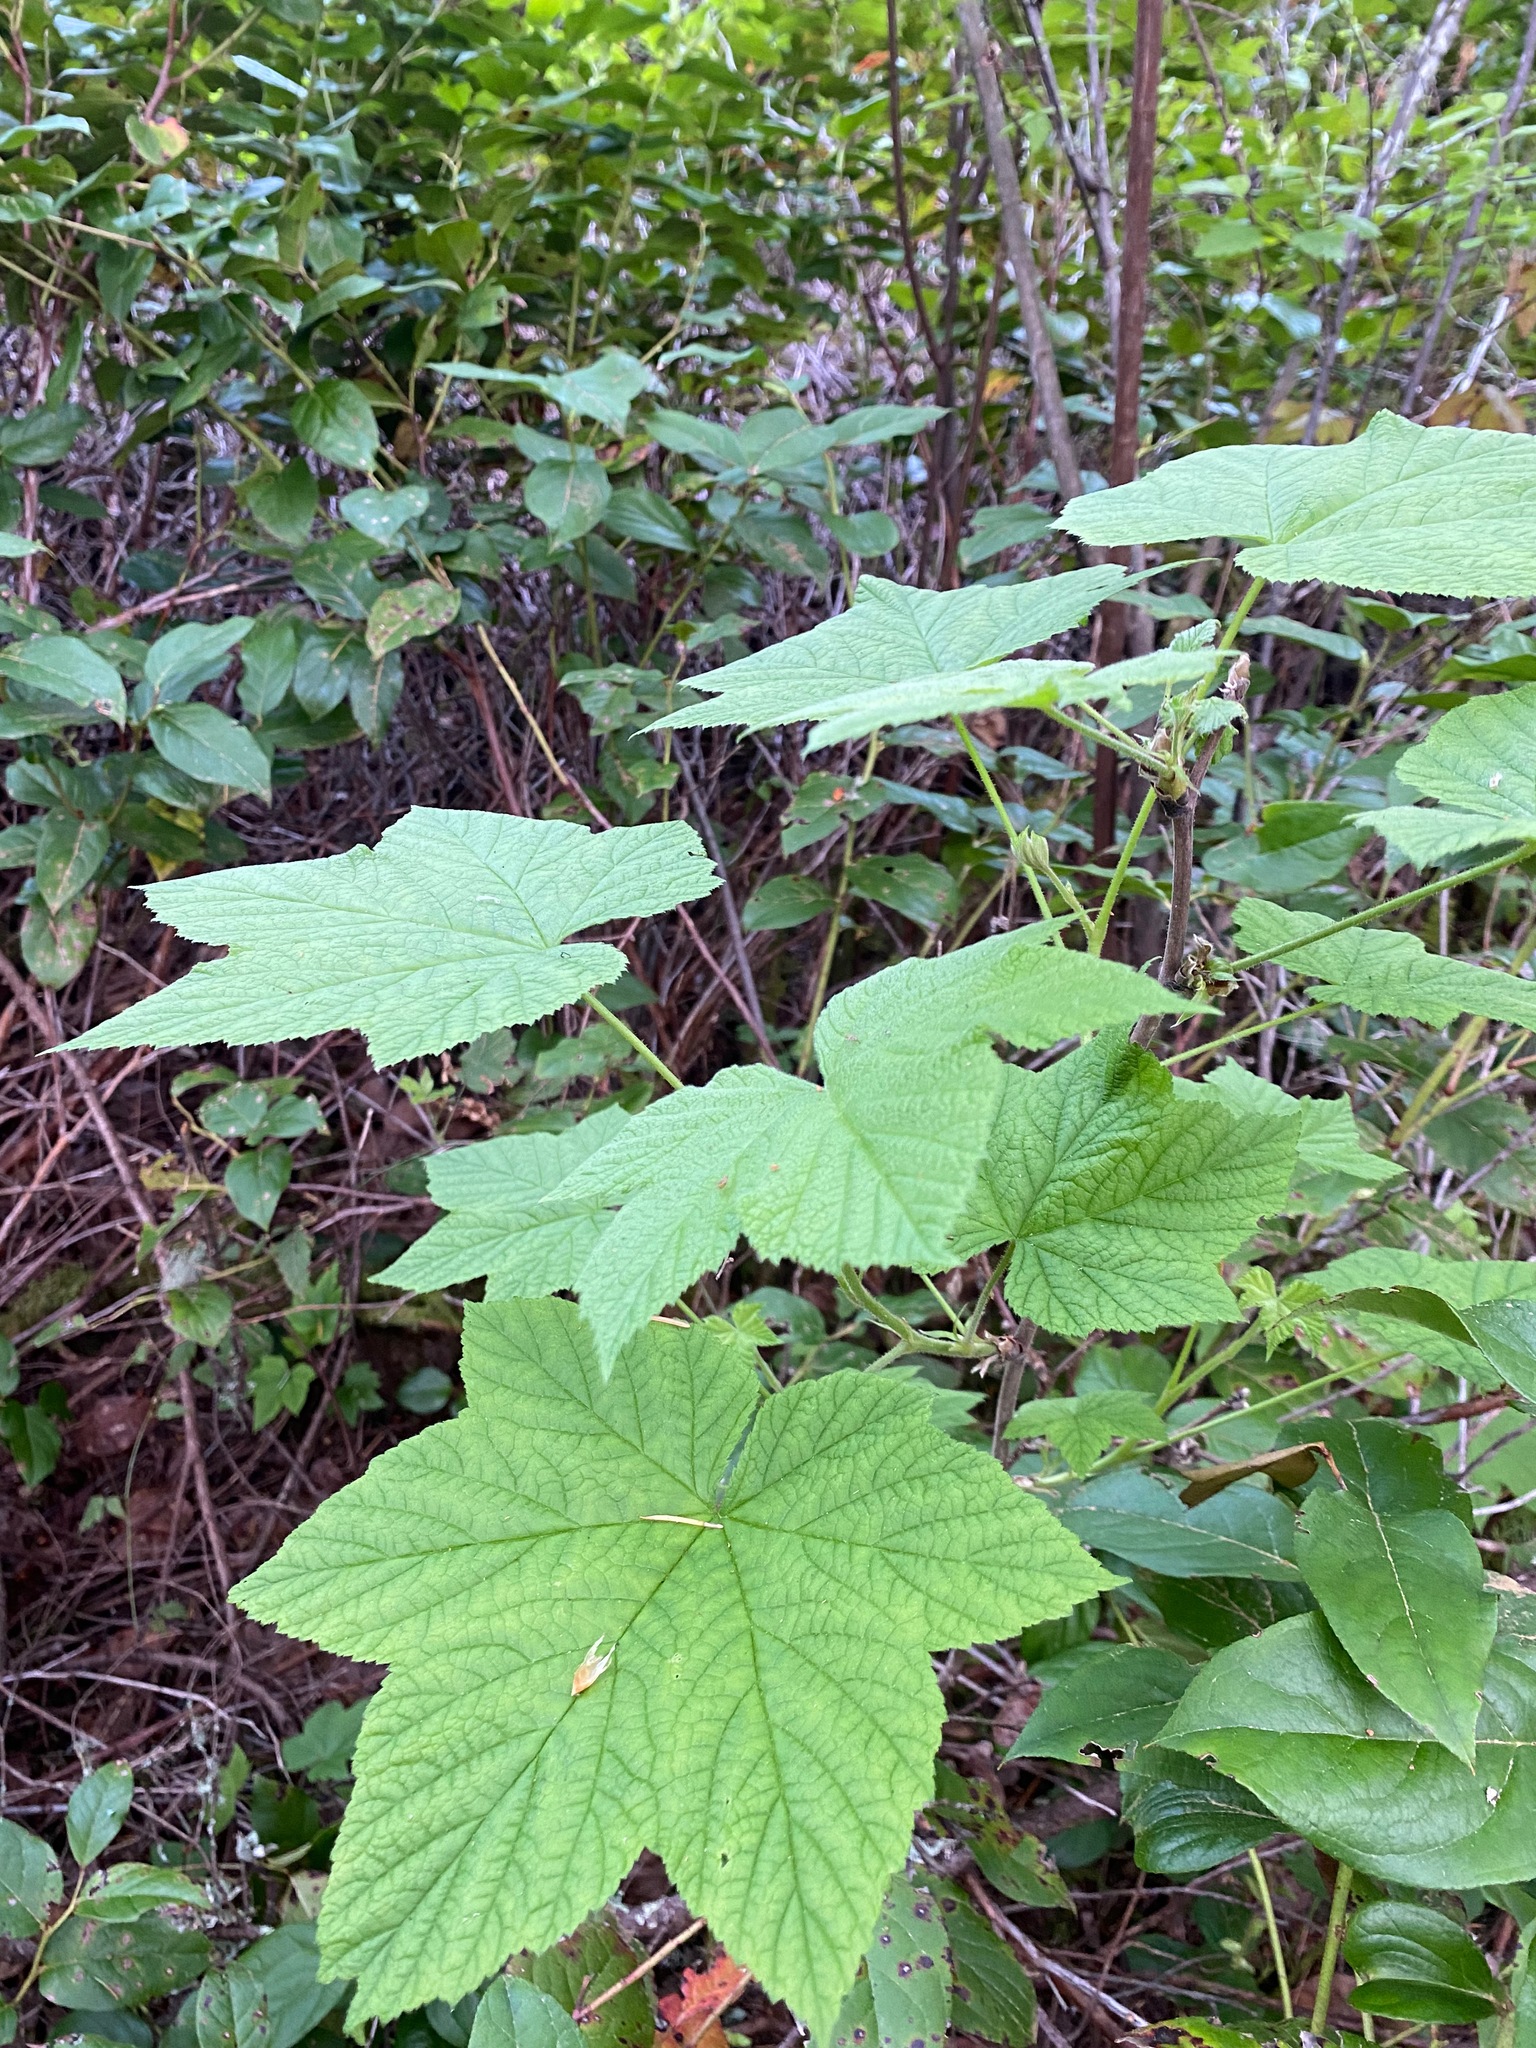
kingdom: Plantae
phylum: Tracheophyta
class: Magnoliopsida
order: Rosales
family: Rosaceae
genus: Rubus
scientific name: Rubus parviflorus
